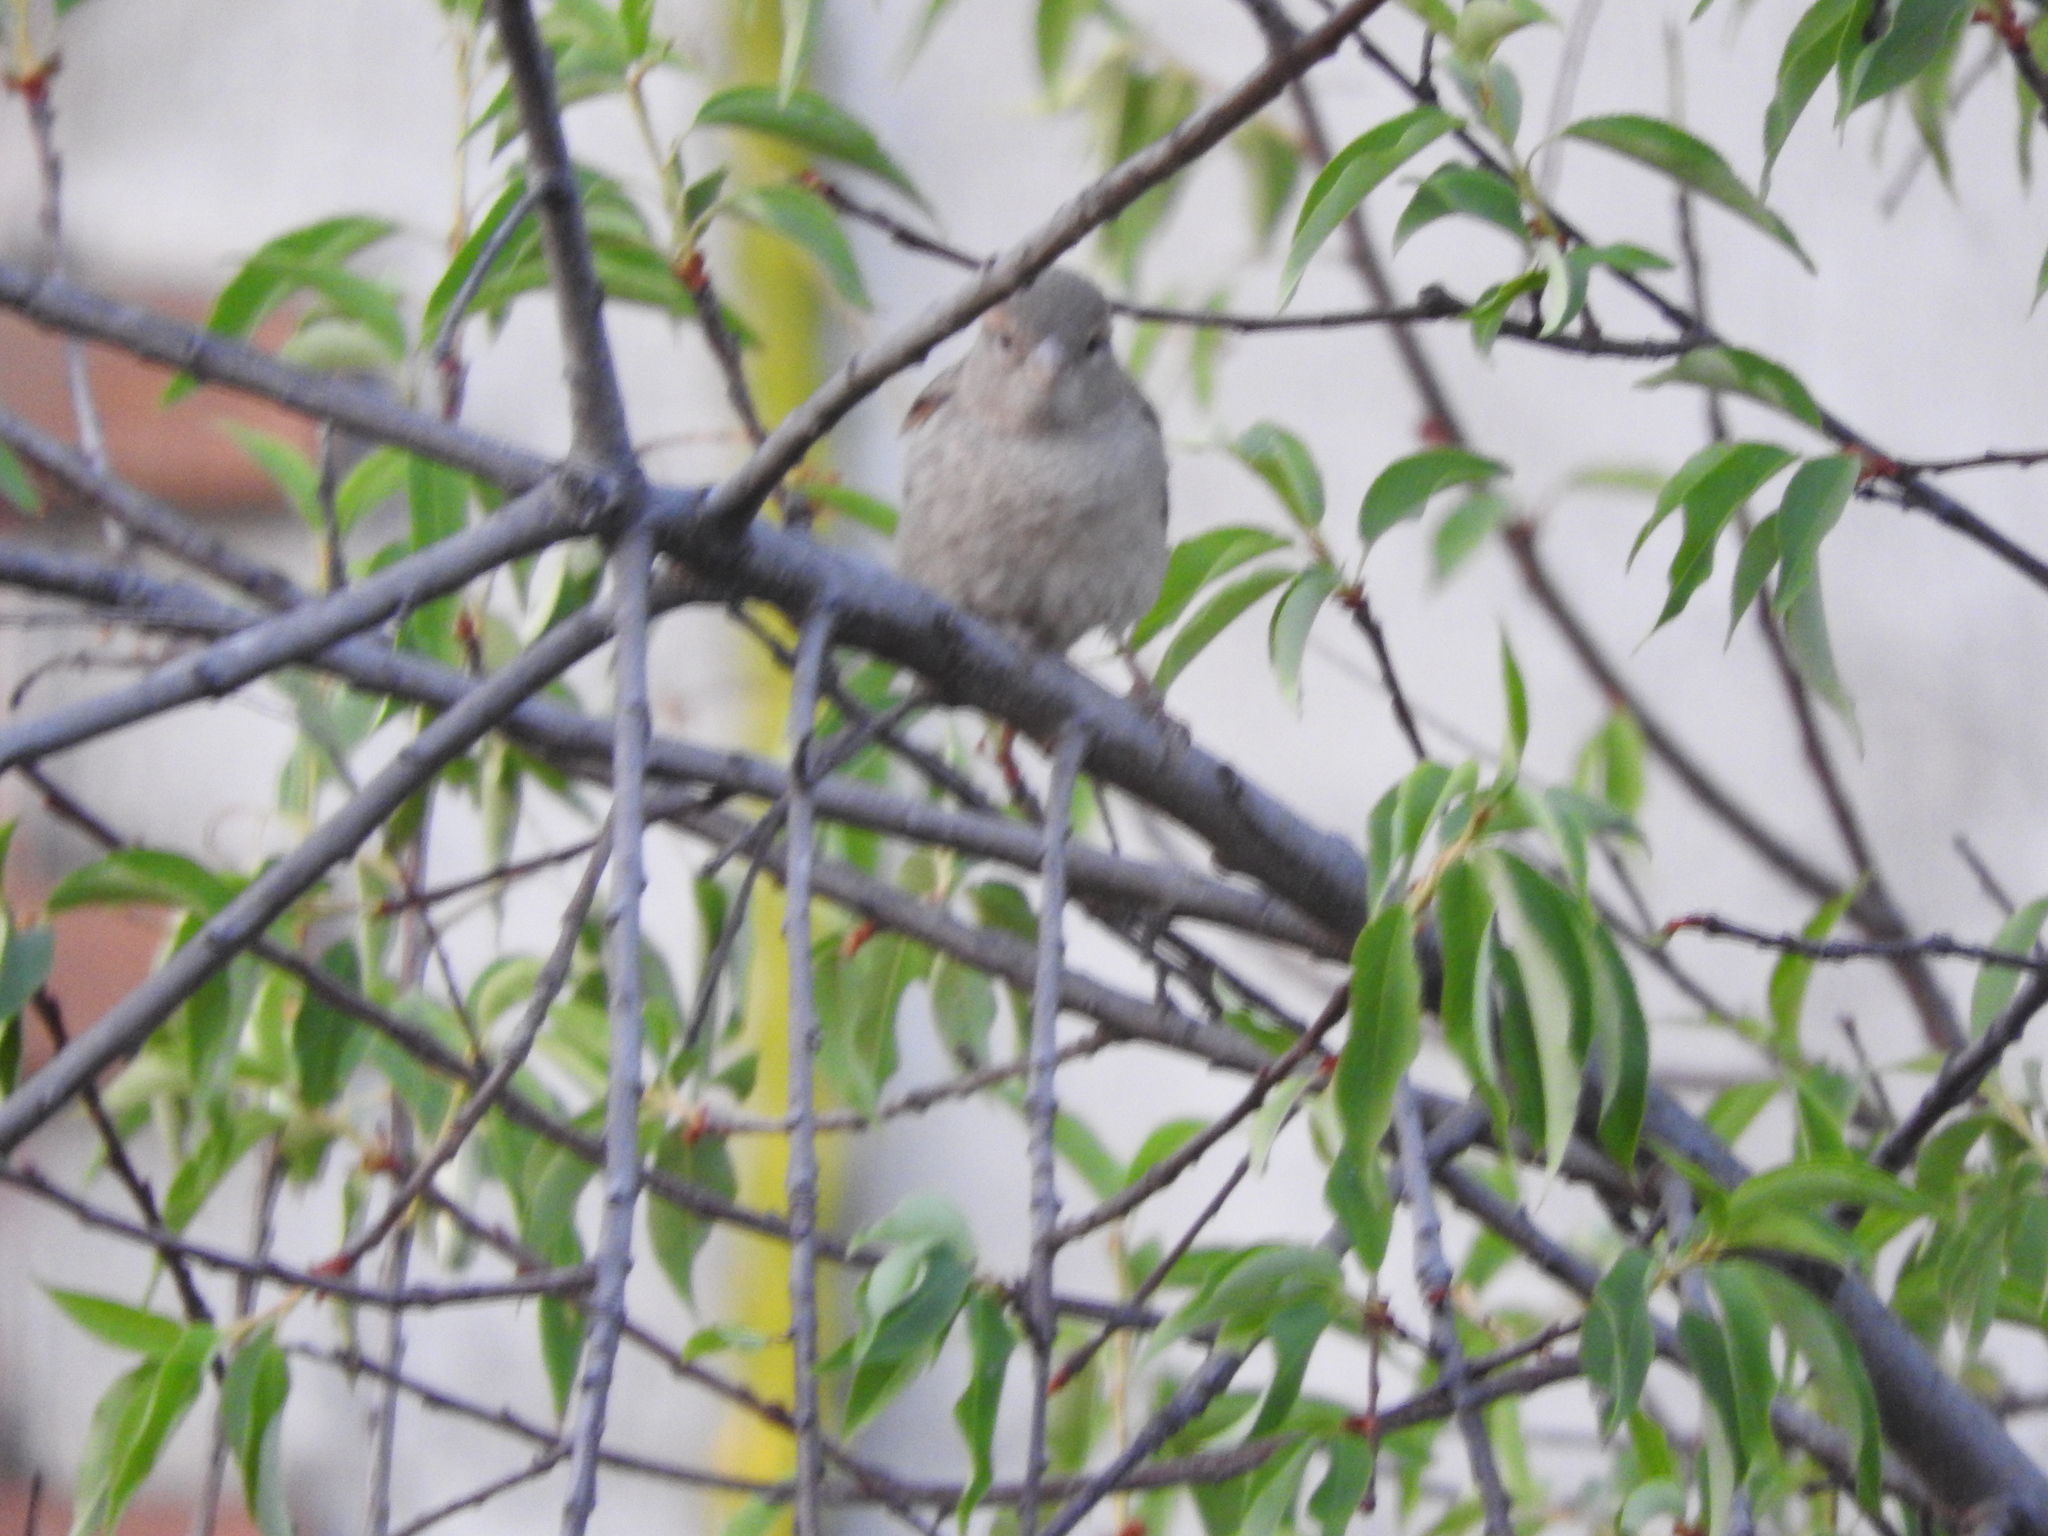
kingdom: Animalia
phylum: Chordata
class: Aves
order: Passeriformes
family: Passeridae
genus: Passer
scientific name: Passer domesticus
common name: House sparrow
